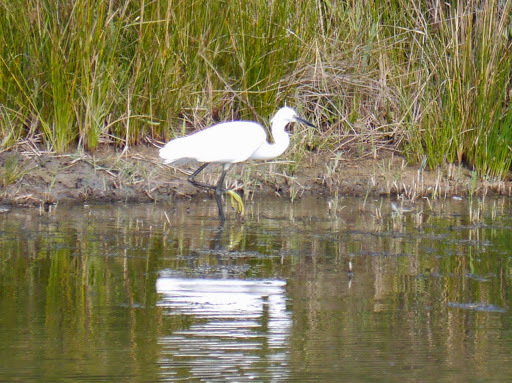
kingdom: Animalia
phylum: Chordata
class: Aves
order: Pelecaniformes
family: Ardeidae
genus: Egretta
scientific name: Egretta garzetta
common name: Little egret
